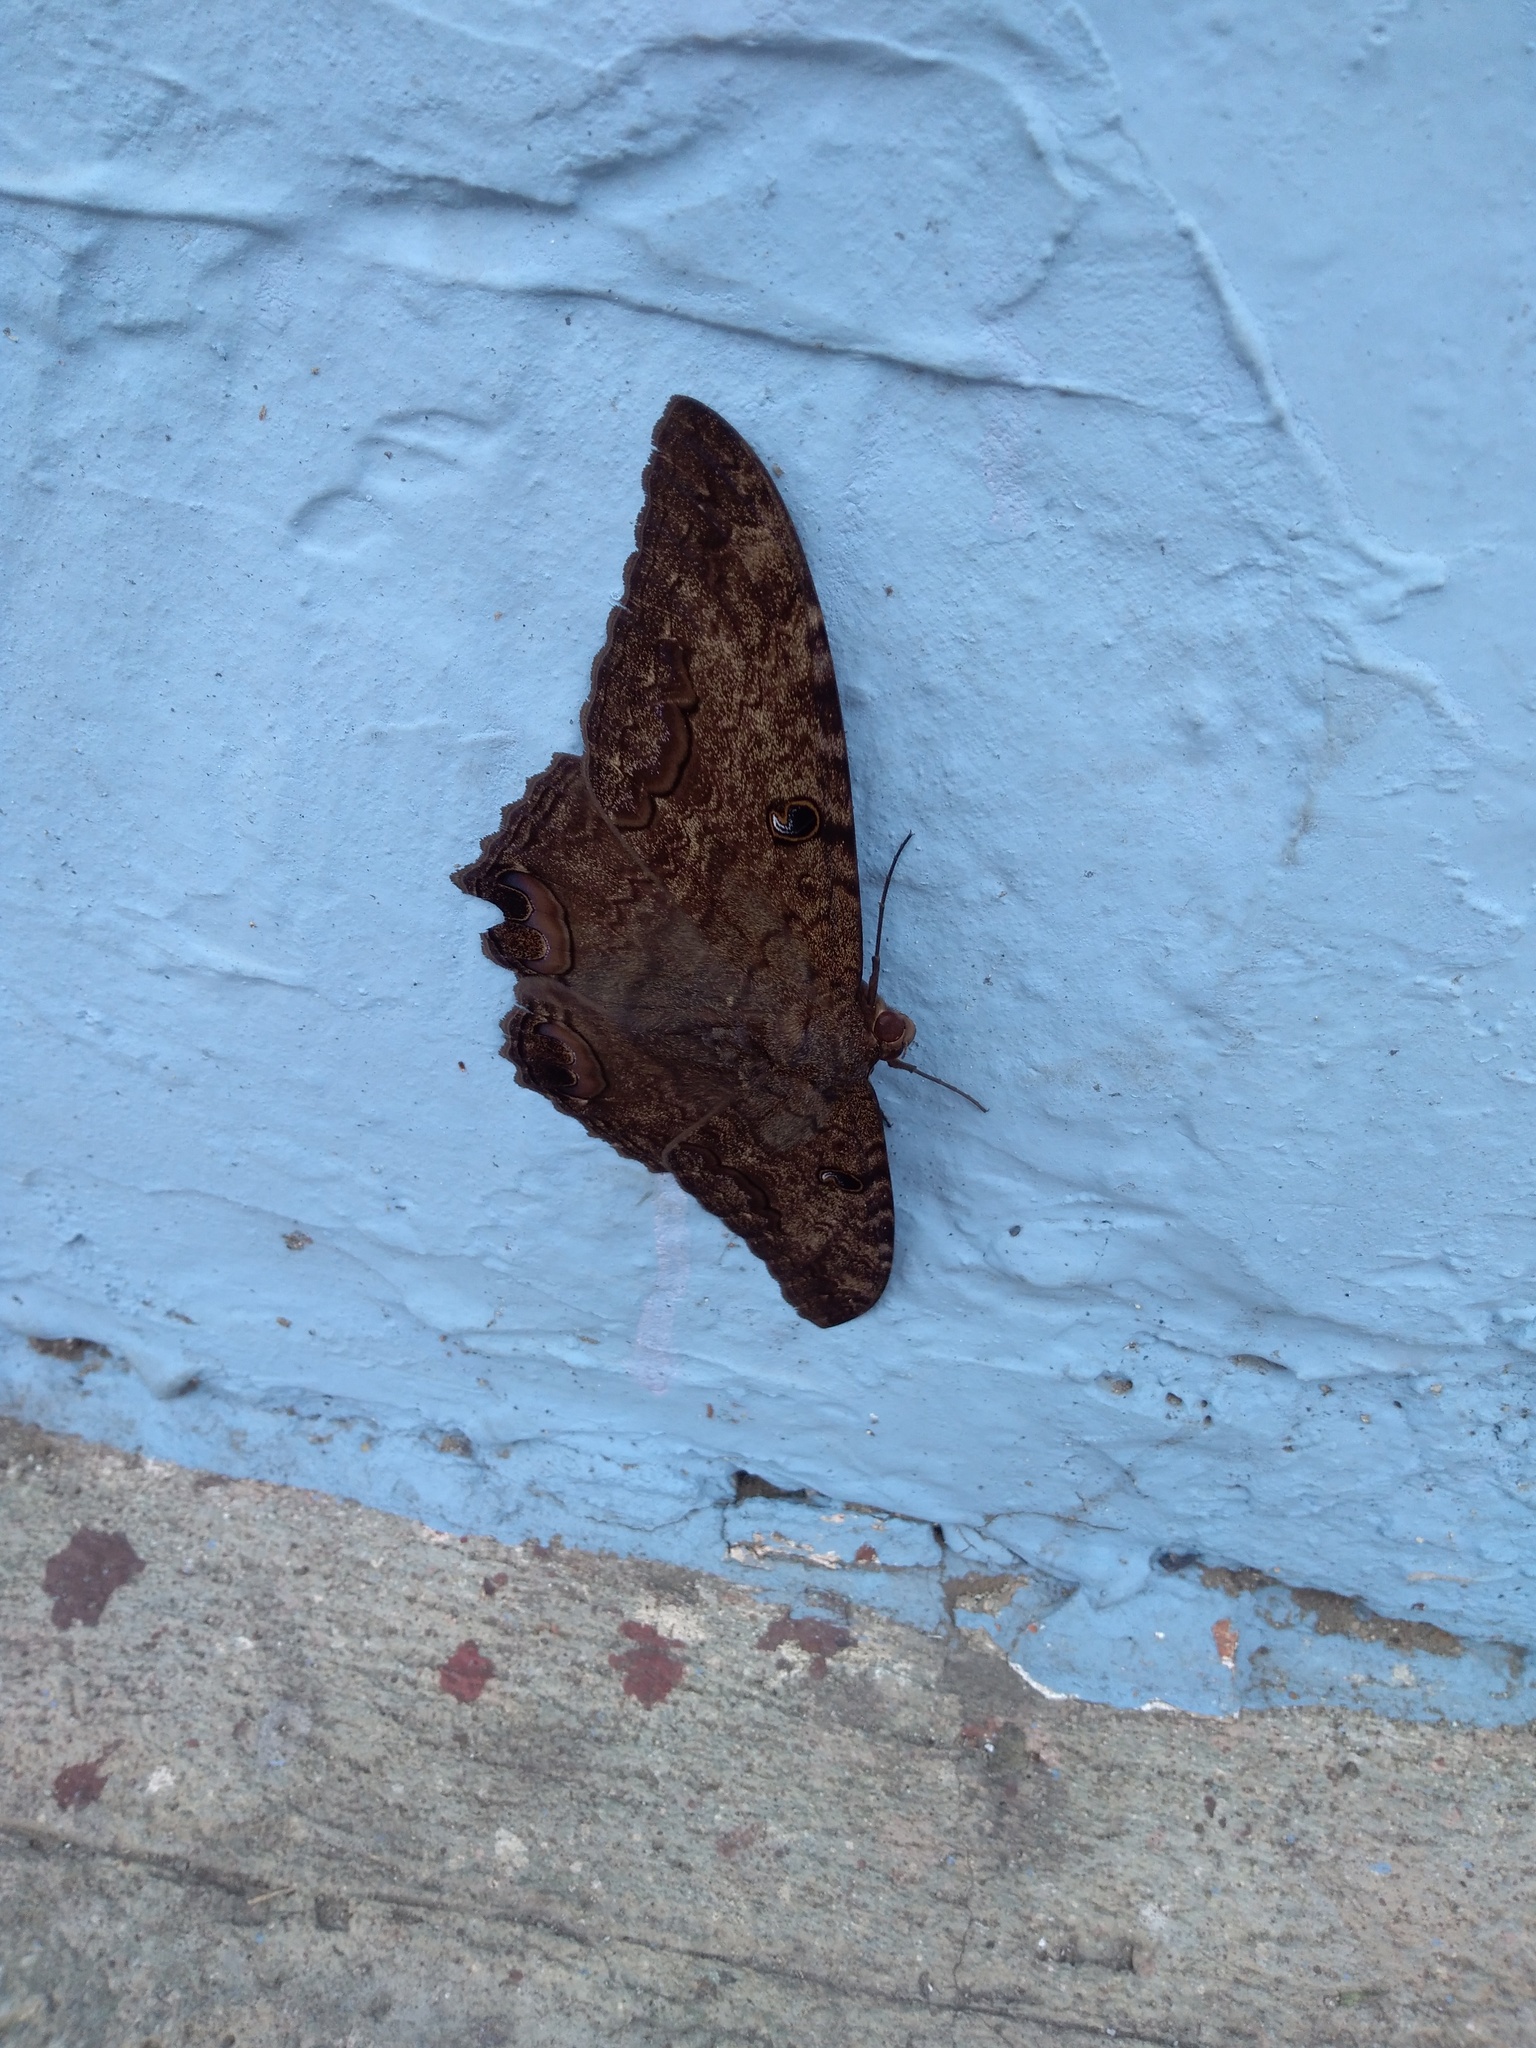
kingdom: Animalia
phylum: Arthropoda
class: Insecta
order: Lepidoptera
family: Erebidae
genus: Ascalapha
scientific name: Ascalapha odorata
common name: Black witch
